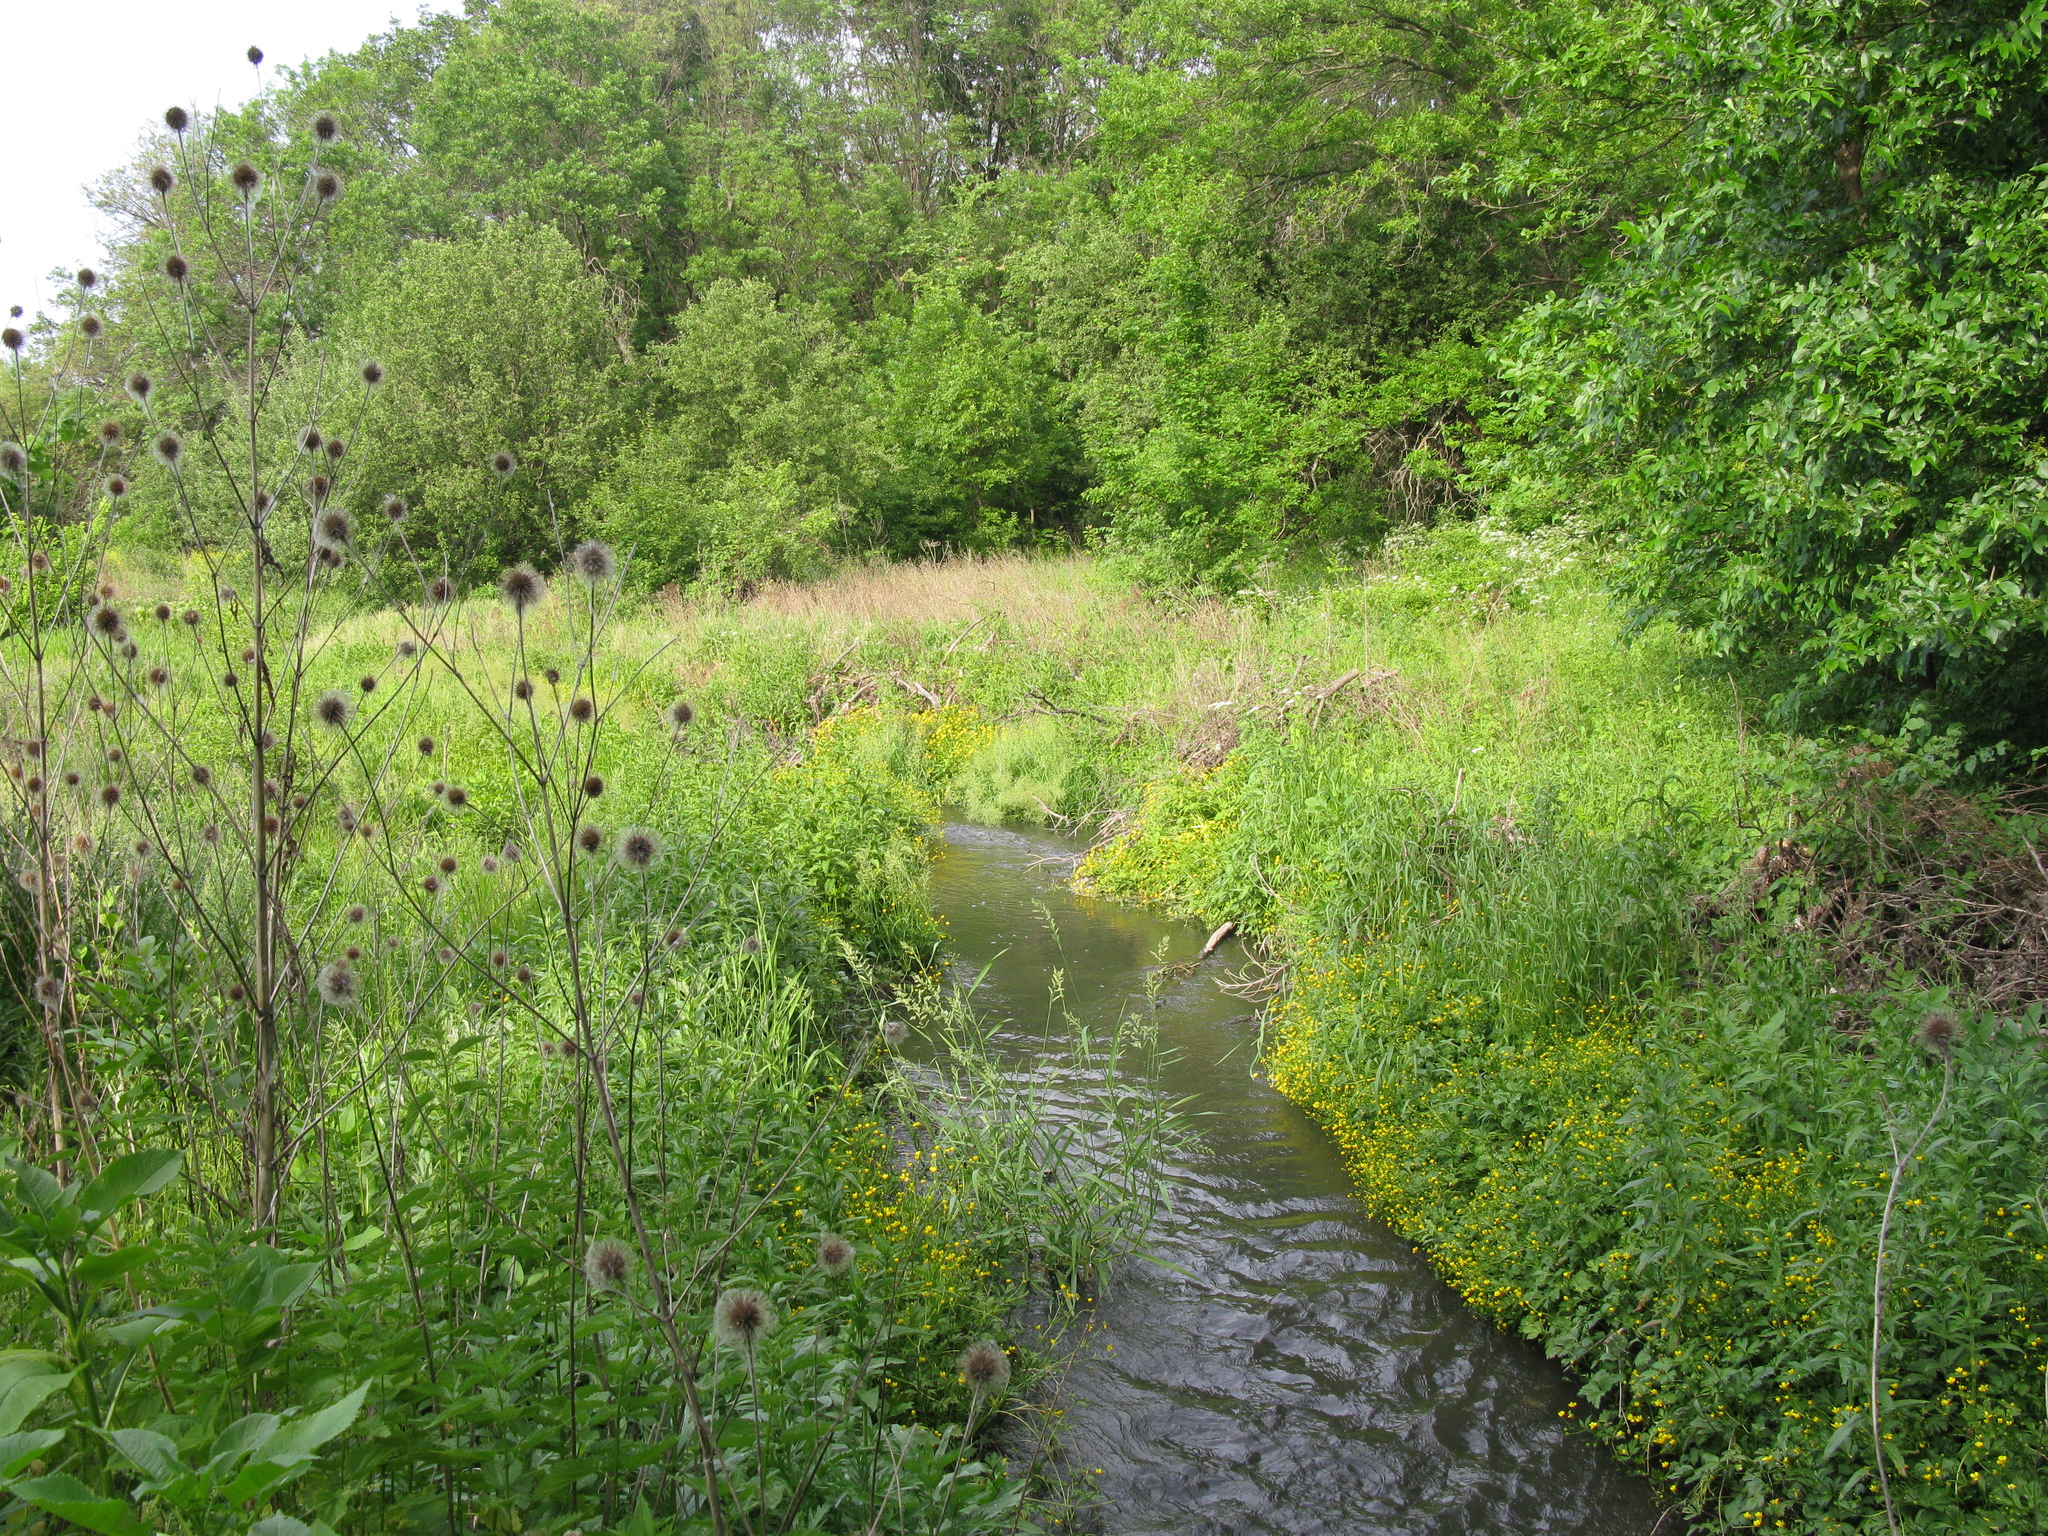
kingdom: Plantae
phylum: Tracheophyta
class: Magnoliopsida
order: Dipsacales
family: Caprifoliaceae
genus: Dipsacus
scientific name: Dipsacus strigosus
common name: Yellow-flowered teasel
